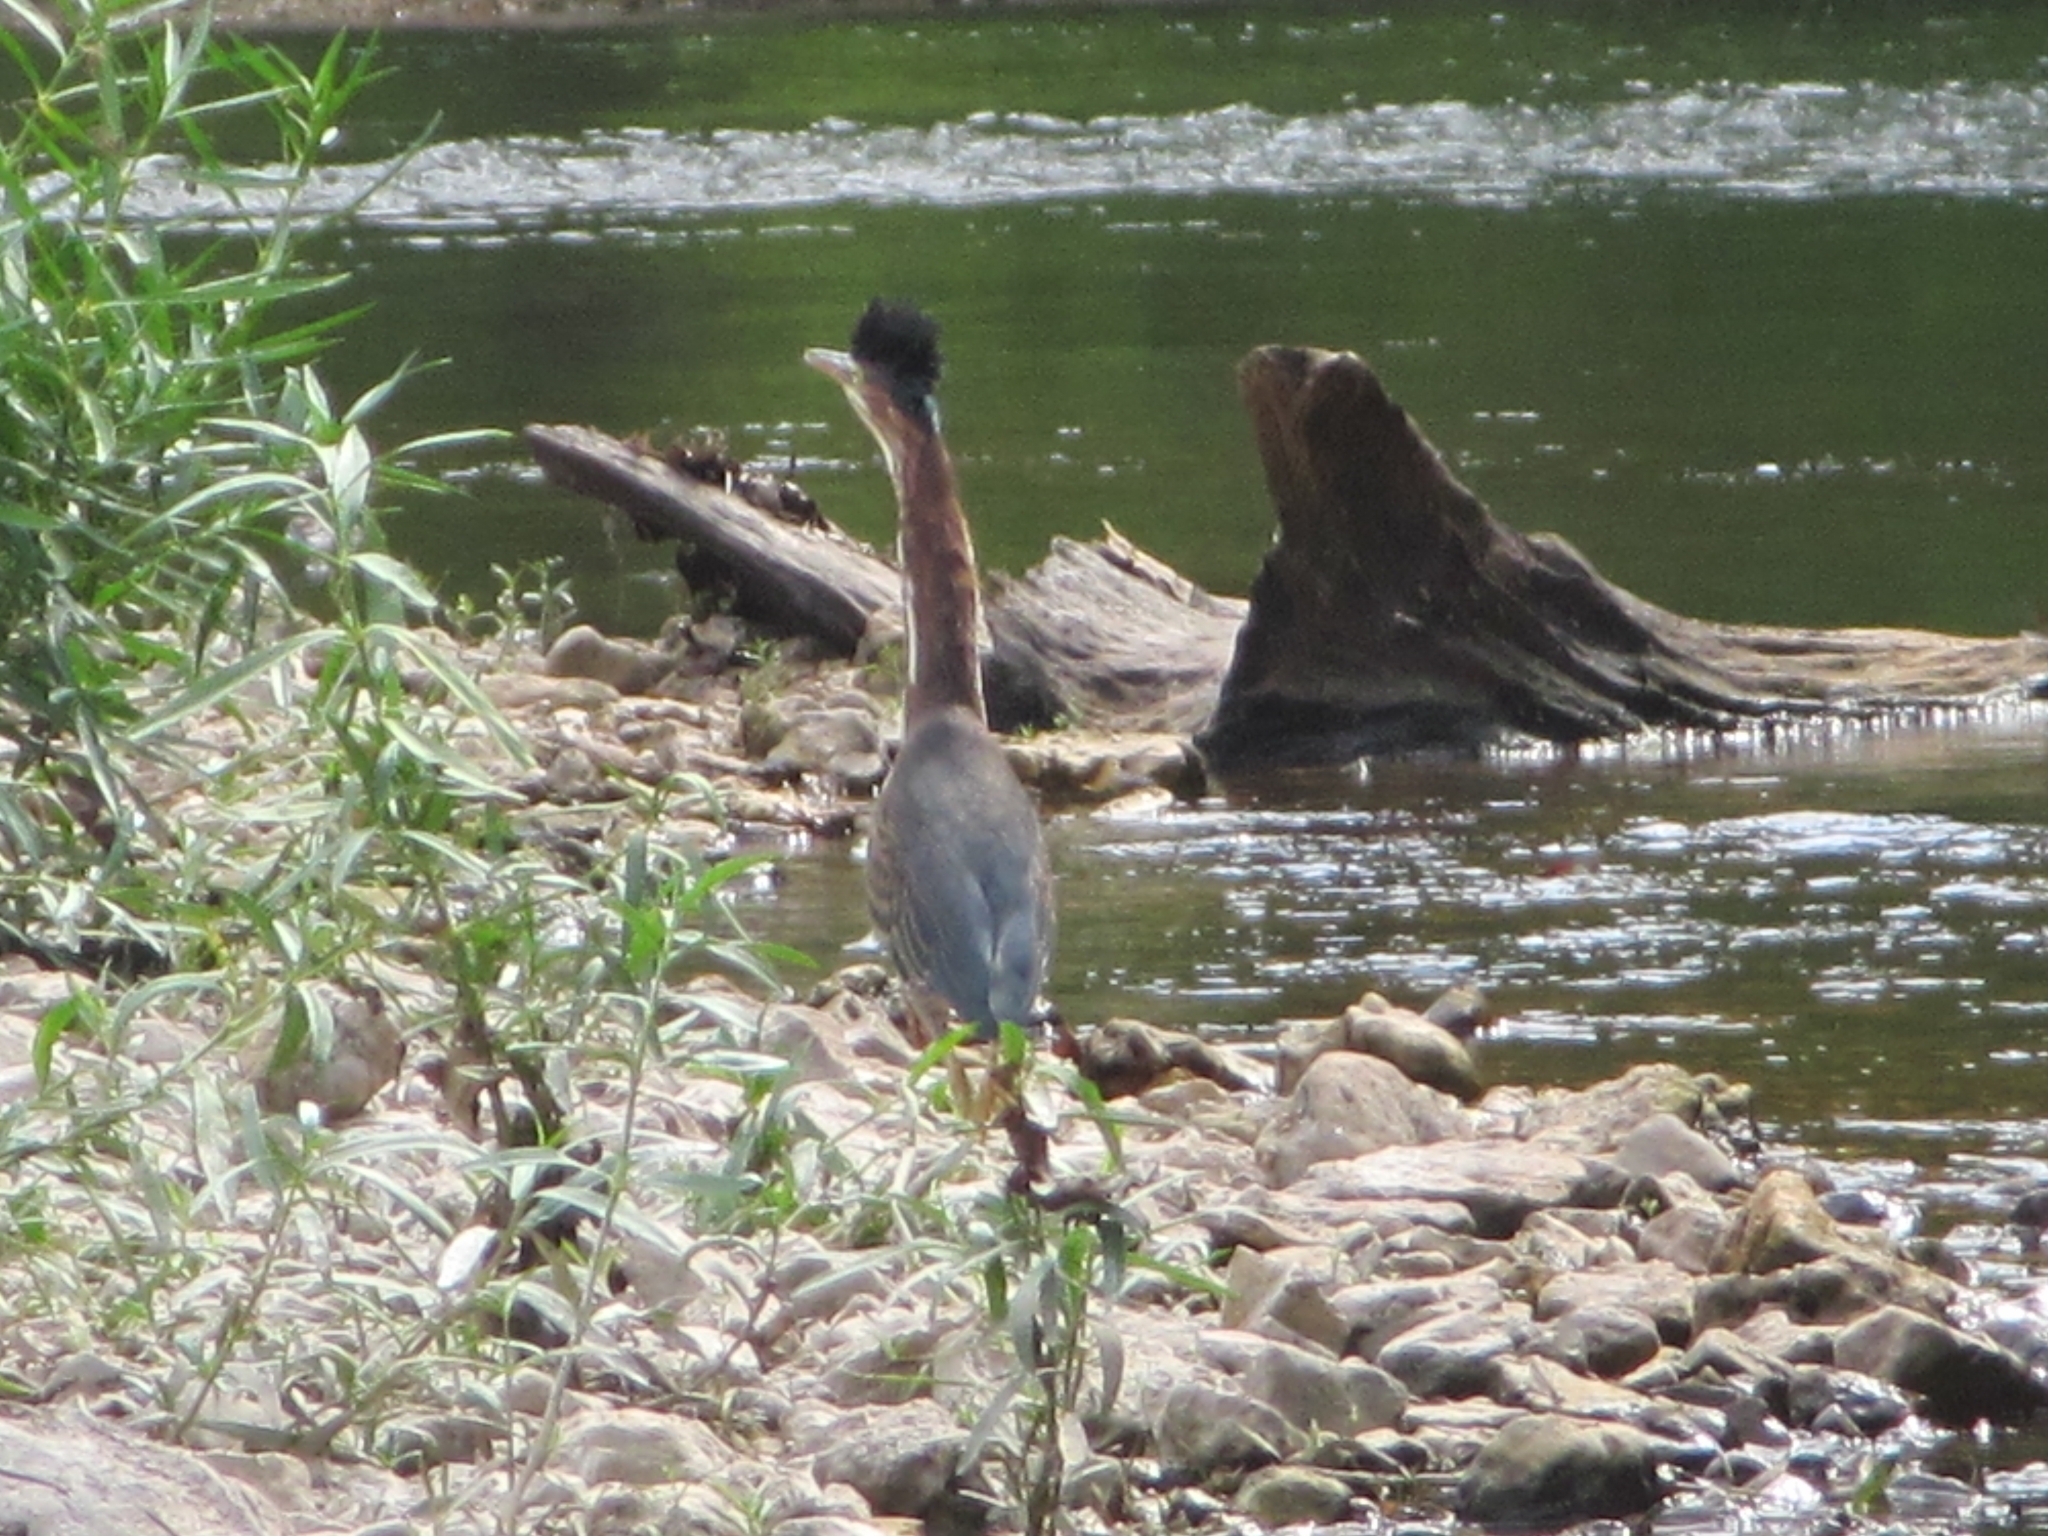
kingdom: Animalia
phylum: Chordata
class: Aves
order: Pelecaniformes
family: Ardeidae
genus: Butorides
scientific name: Butorides virescens
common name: Green heron
